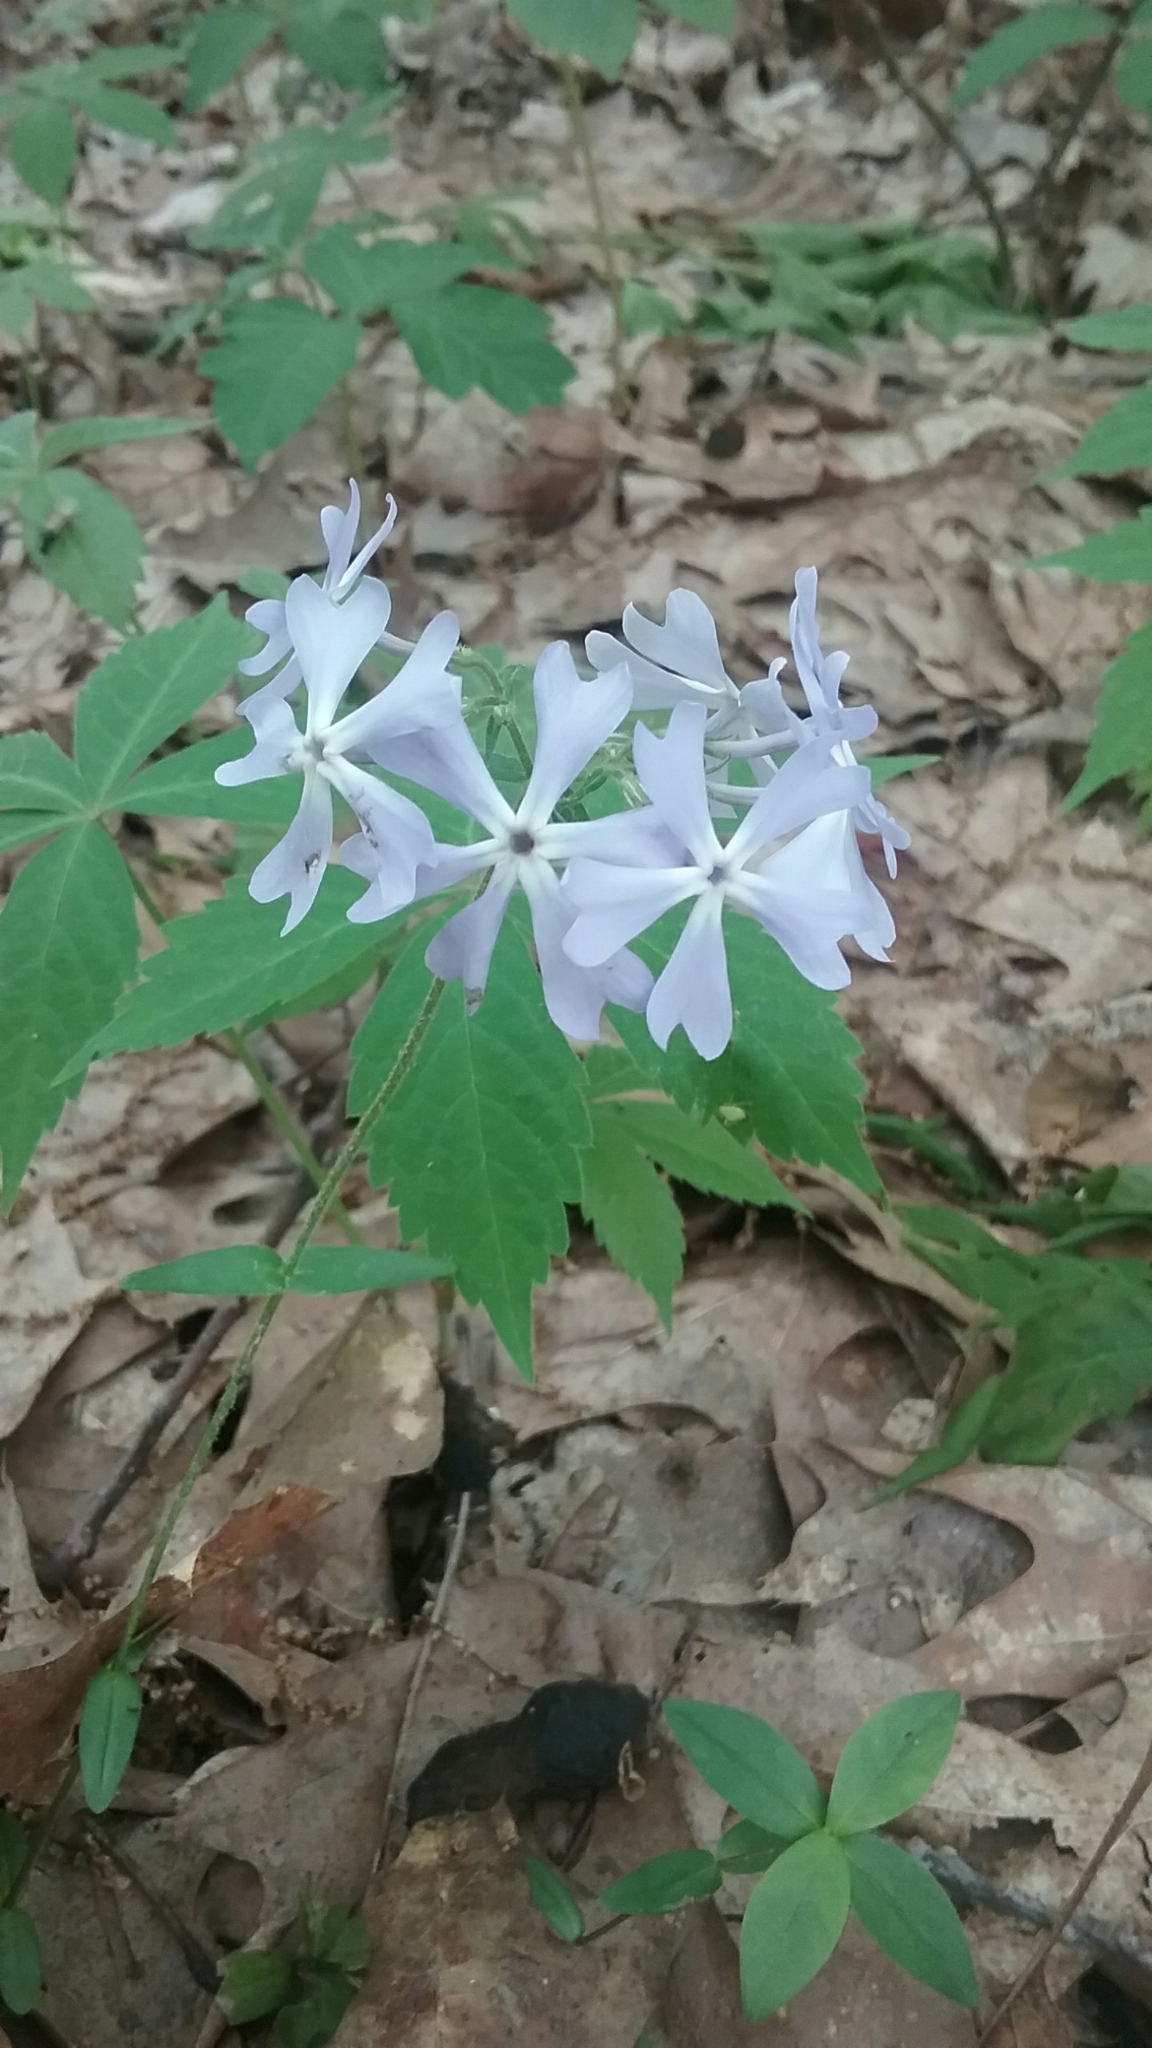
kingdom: Plantae
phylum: Tracheophyta
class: Magnoliopsida
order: Ericales
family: Polemoniaceae
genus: Phlox
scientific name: Phlox divaricata
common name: Blue phlox
